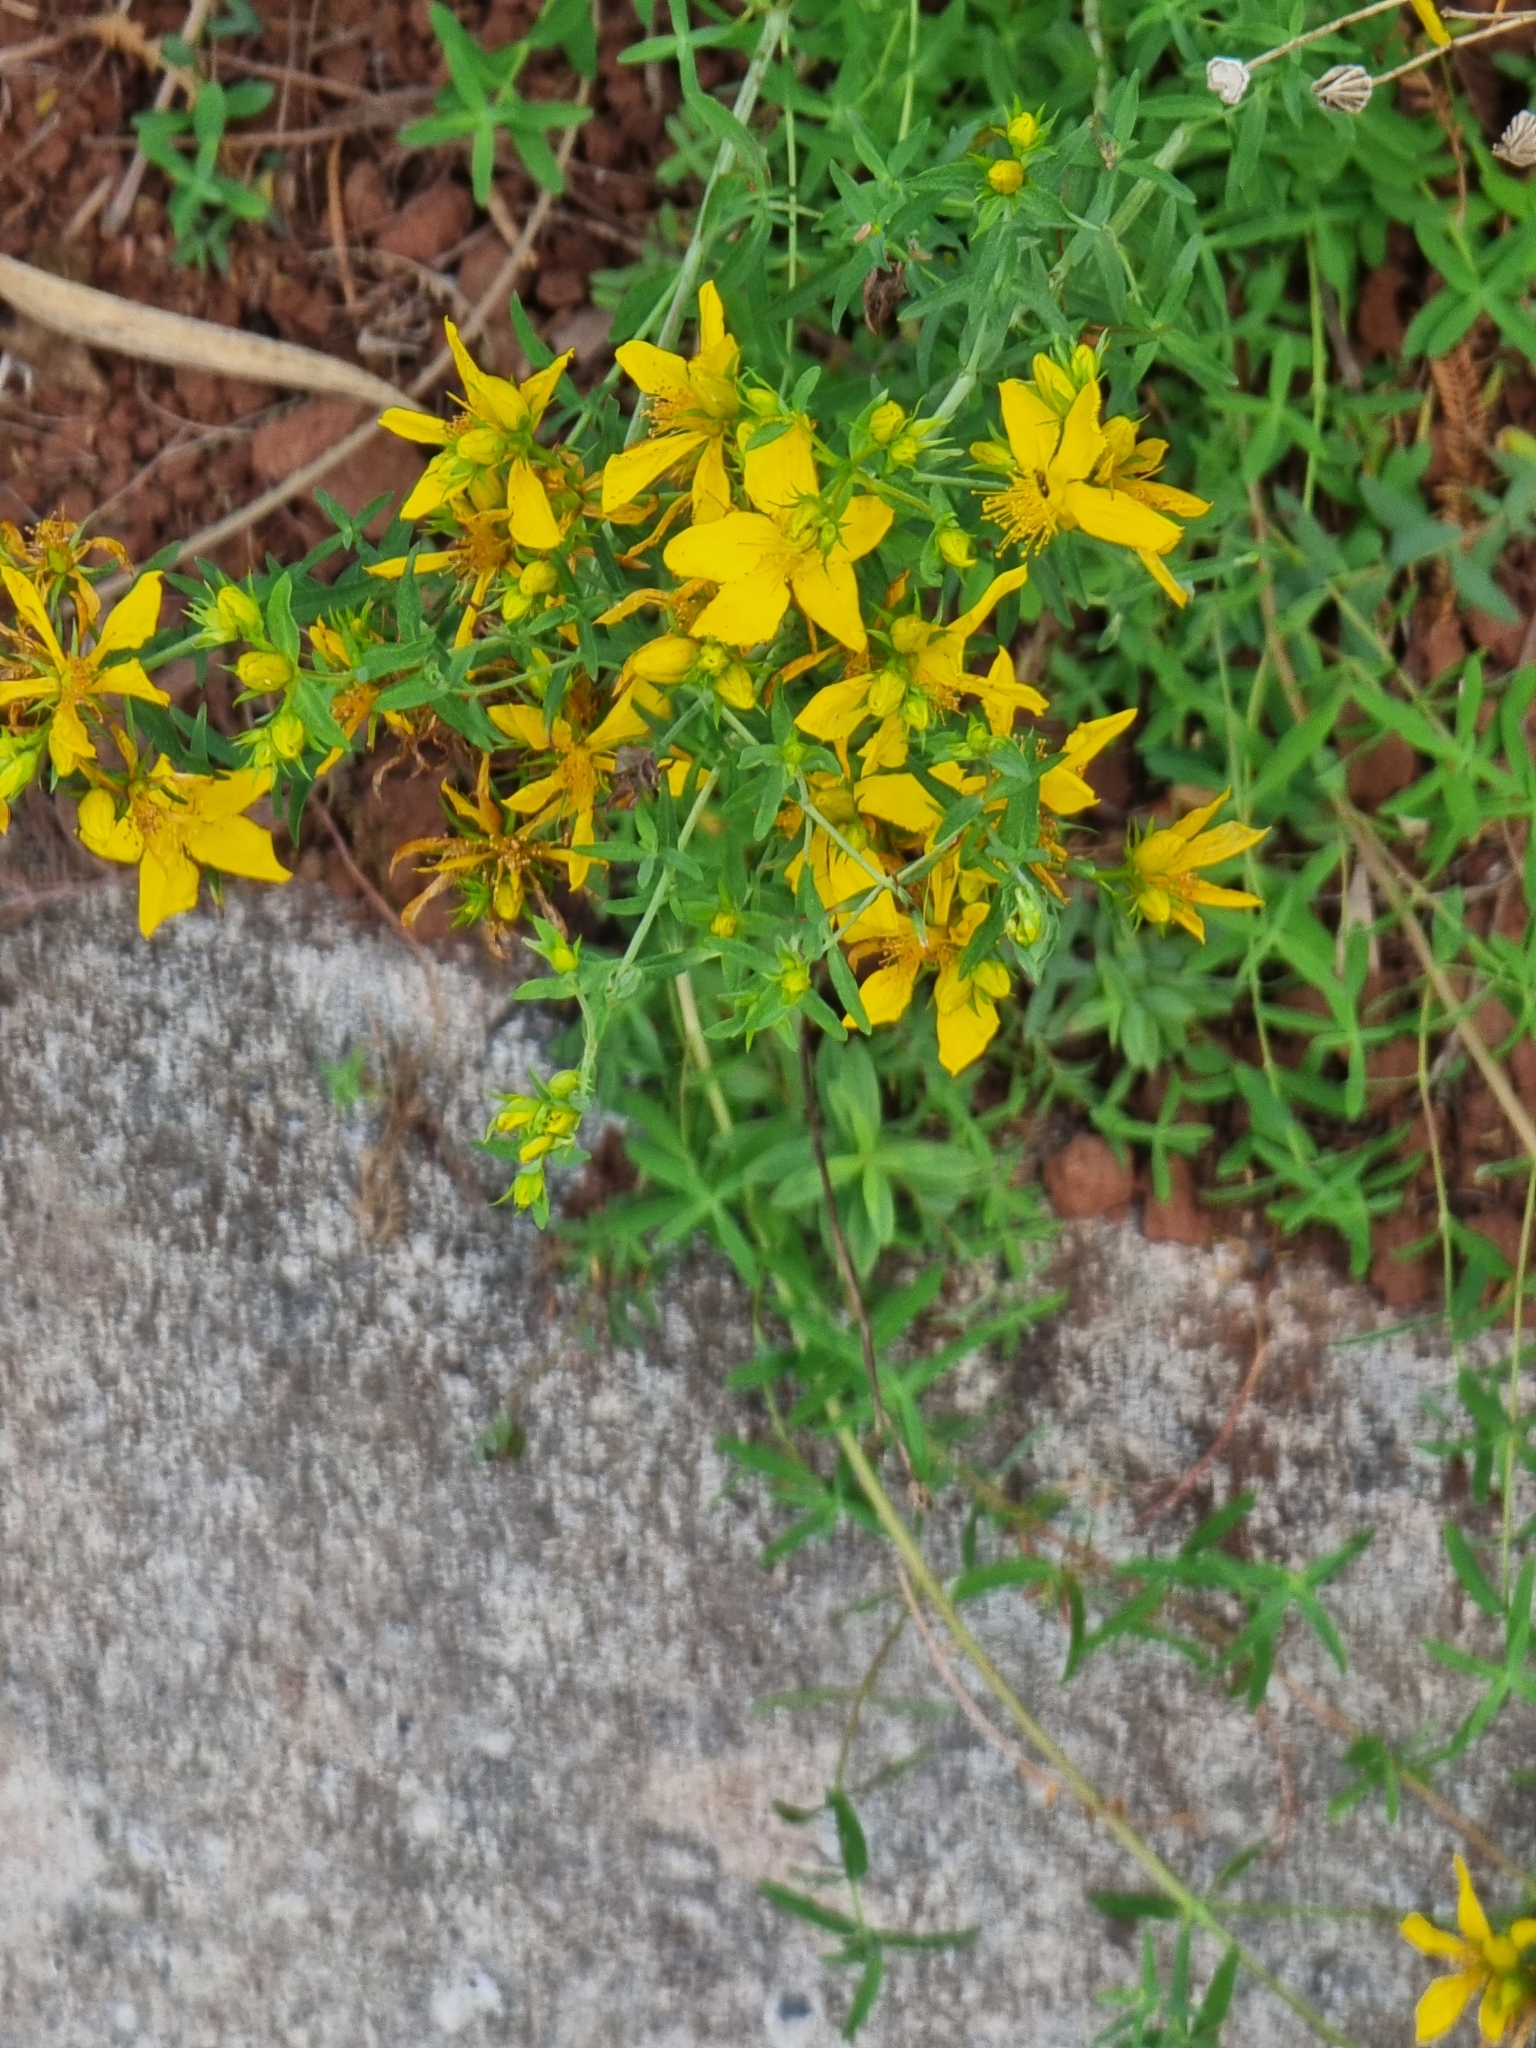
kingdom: Plantae
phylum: Tracheophyta
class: Magnoliopsida
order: Malpighiales
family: Hypericaceae
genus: Hypericum
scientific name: Hypericum perforatum
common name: Common st. johnswort
